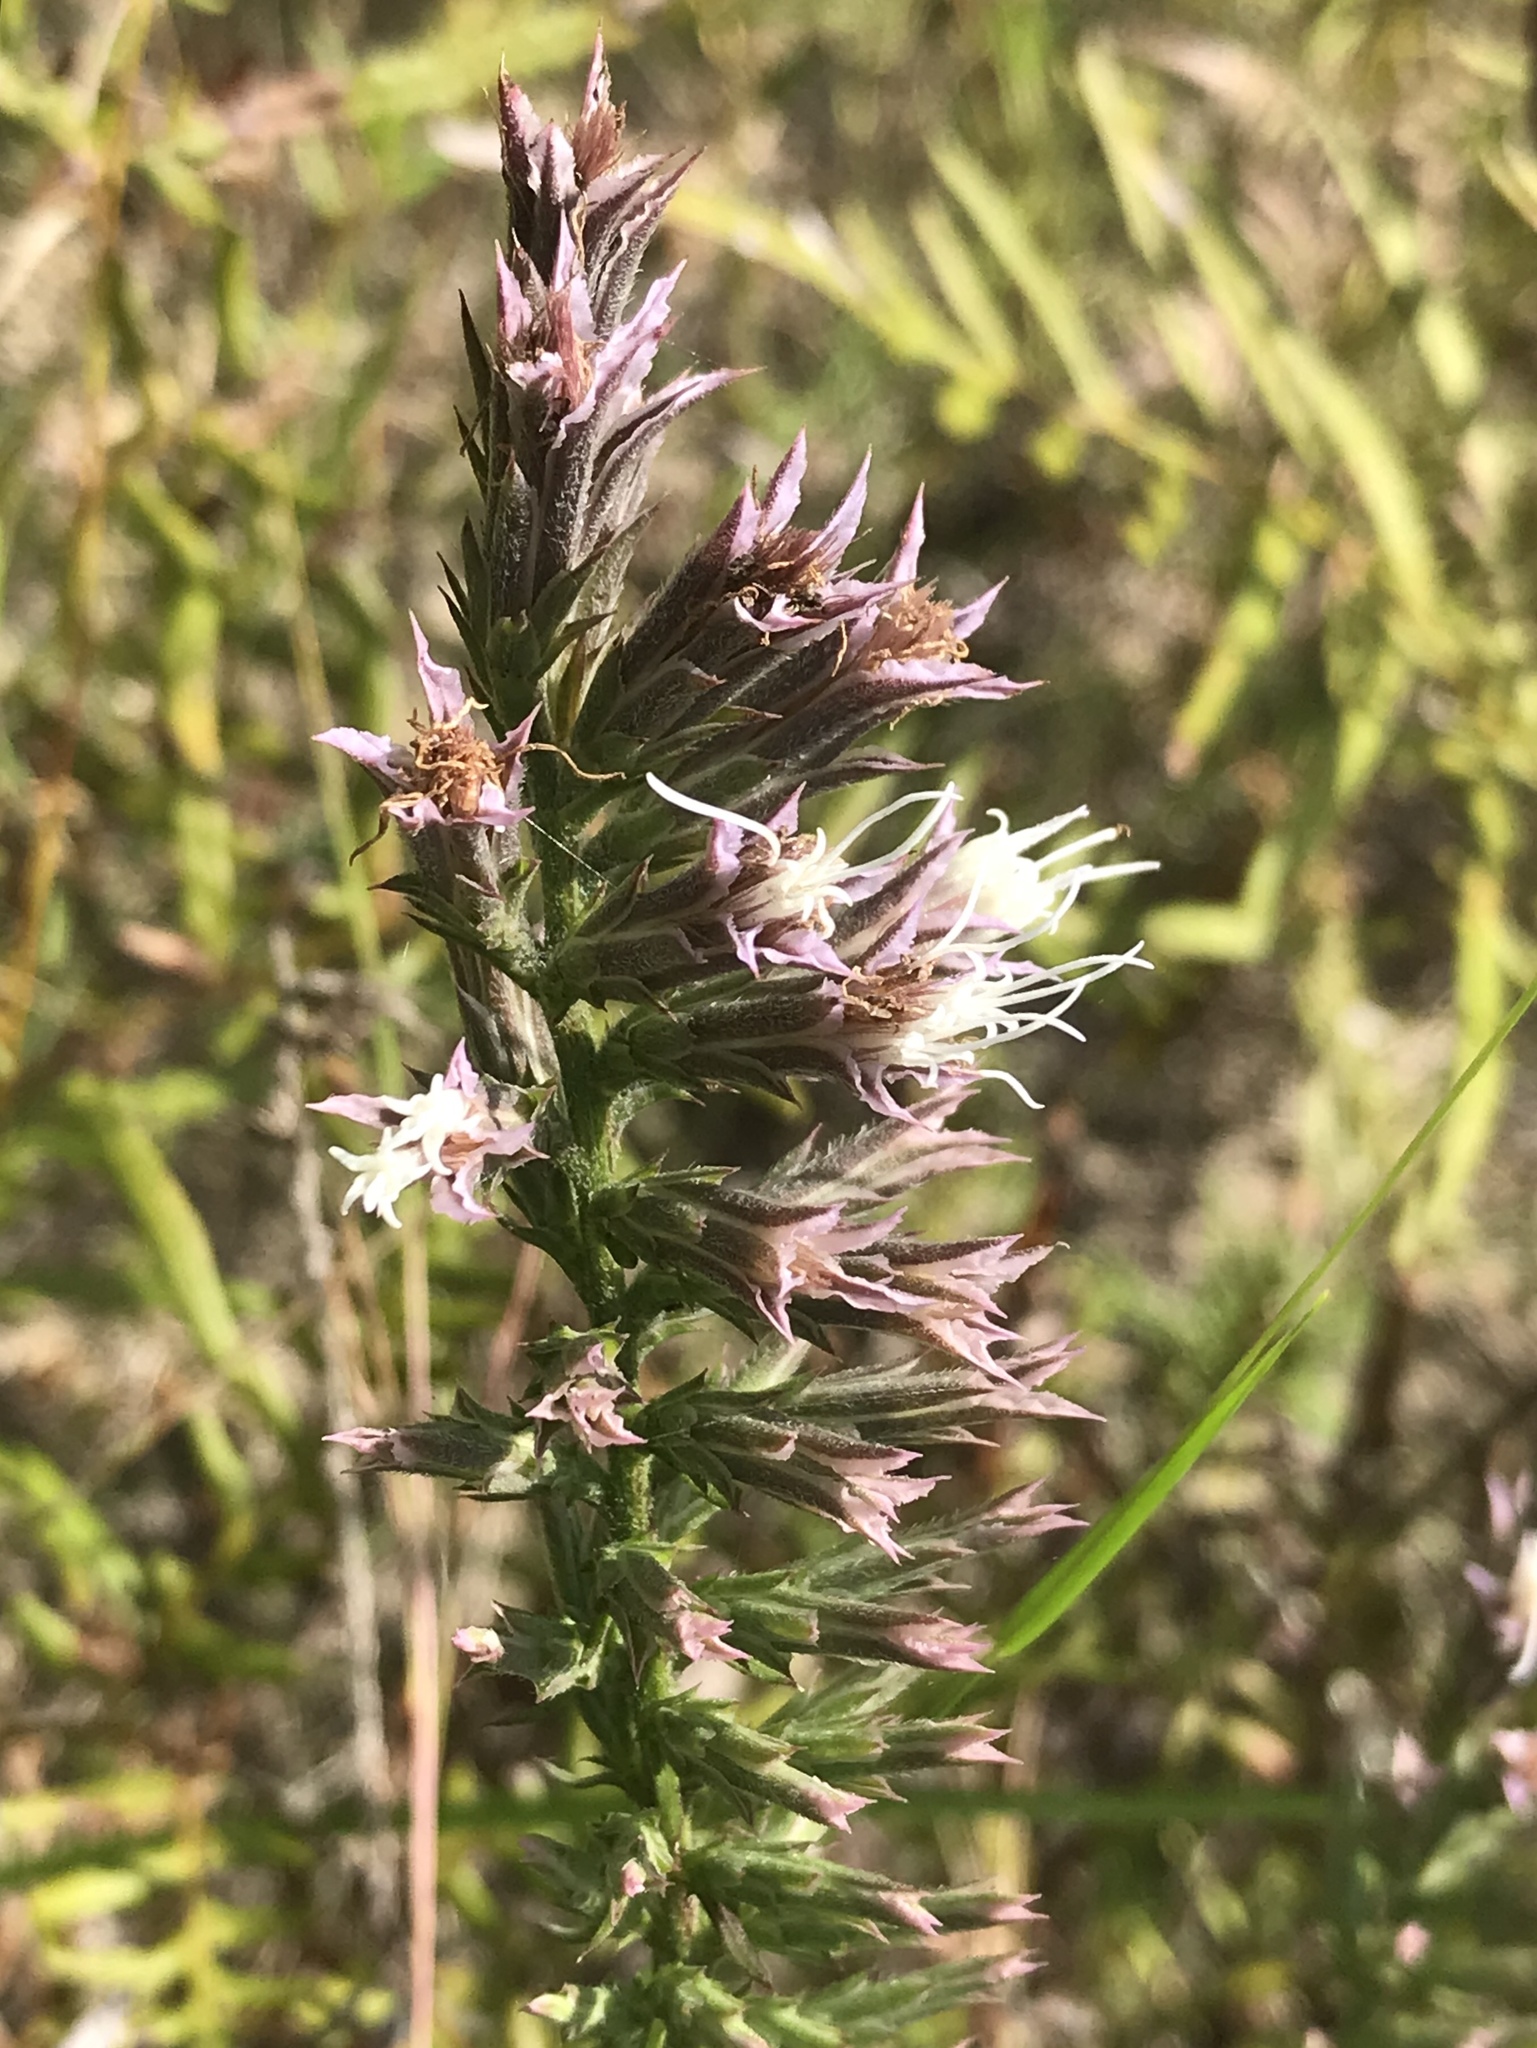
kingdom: Plantae
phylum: Tracheophyta
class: Magnoliopsida
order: Asterales
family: Asteraceae
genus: Liatris
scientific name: Liatris hesperelegans
